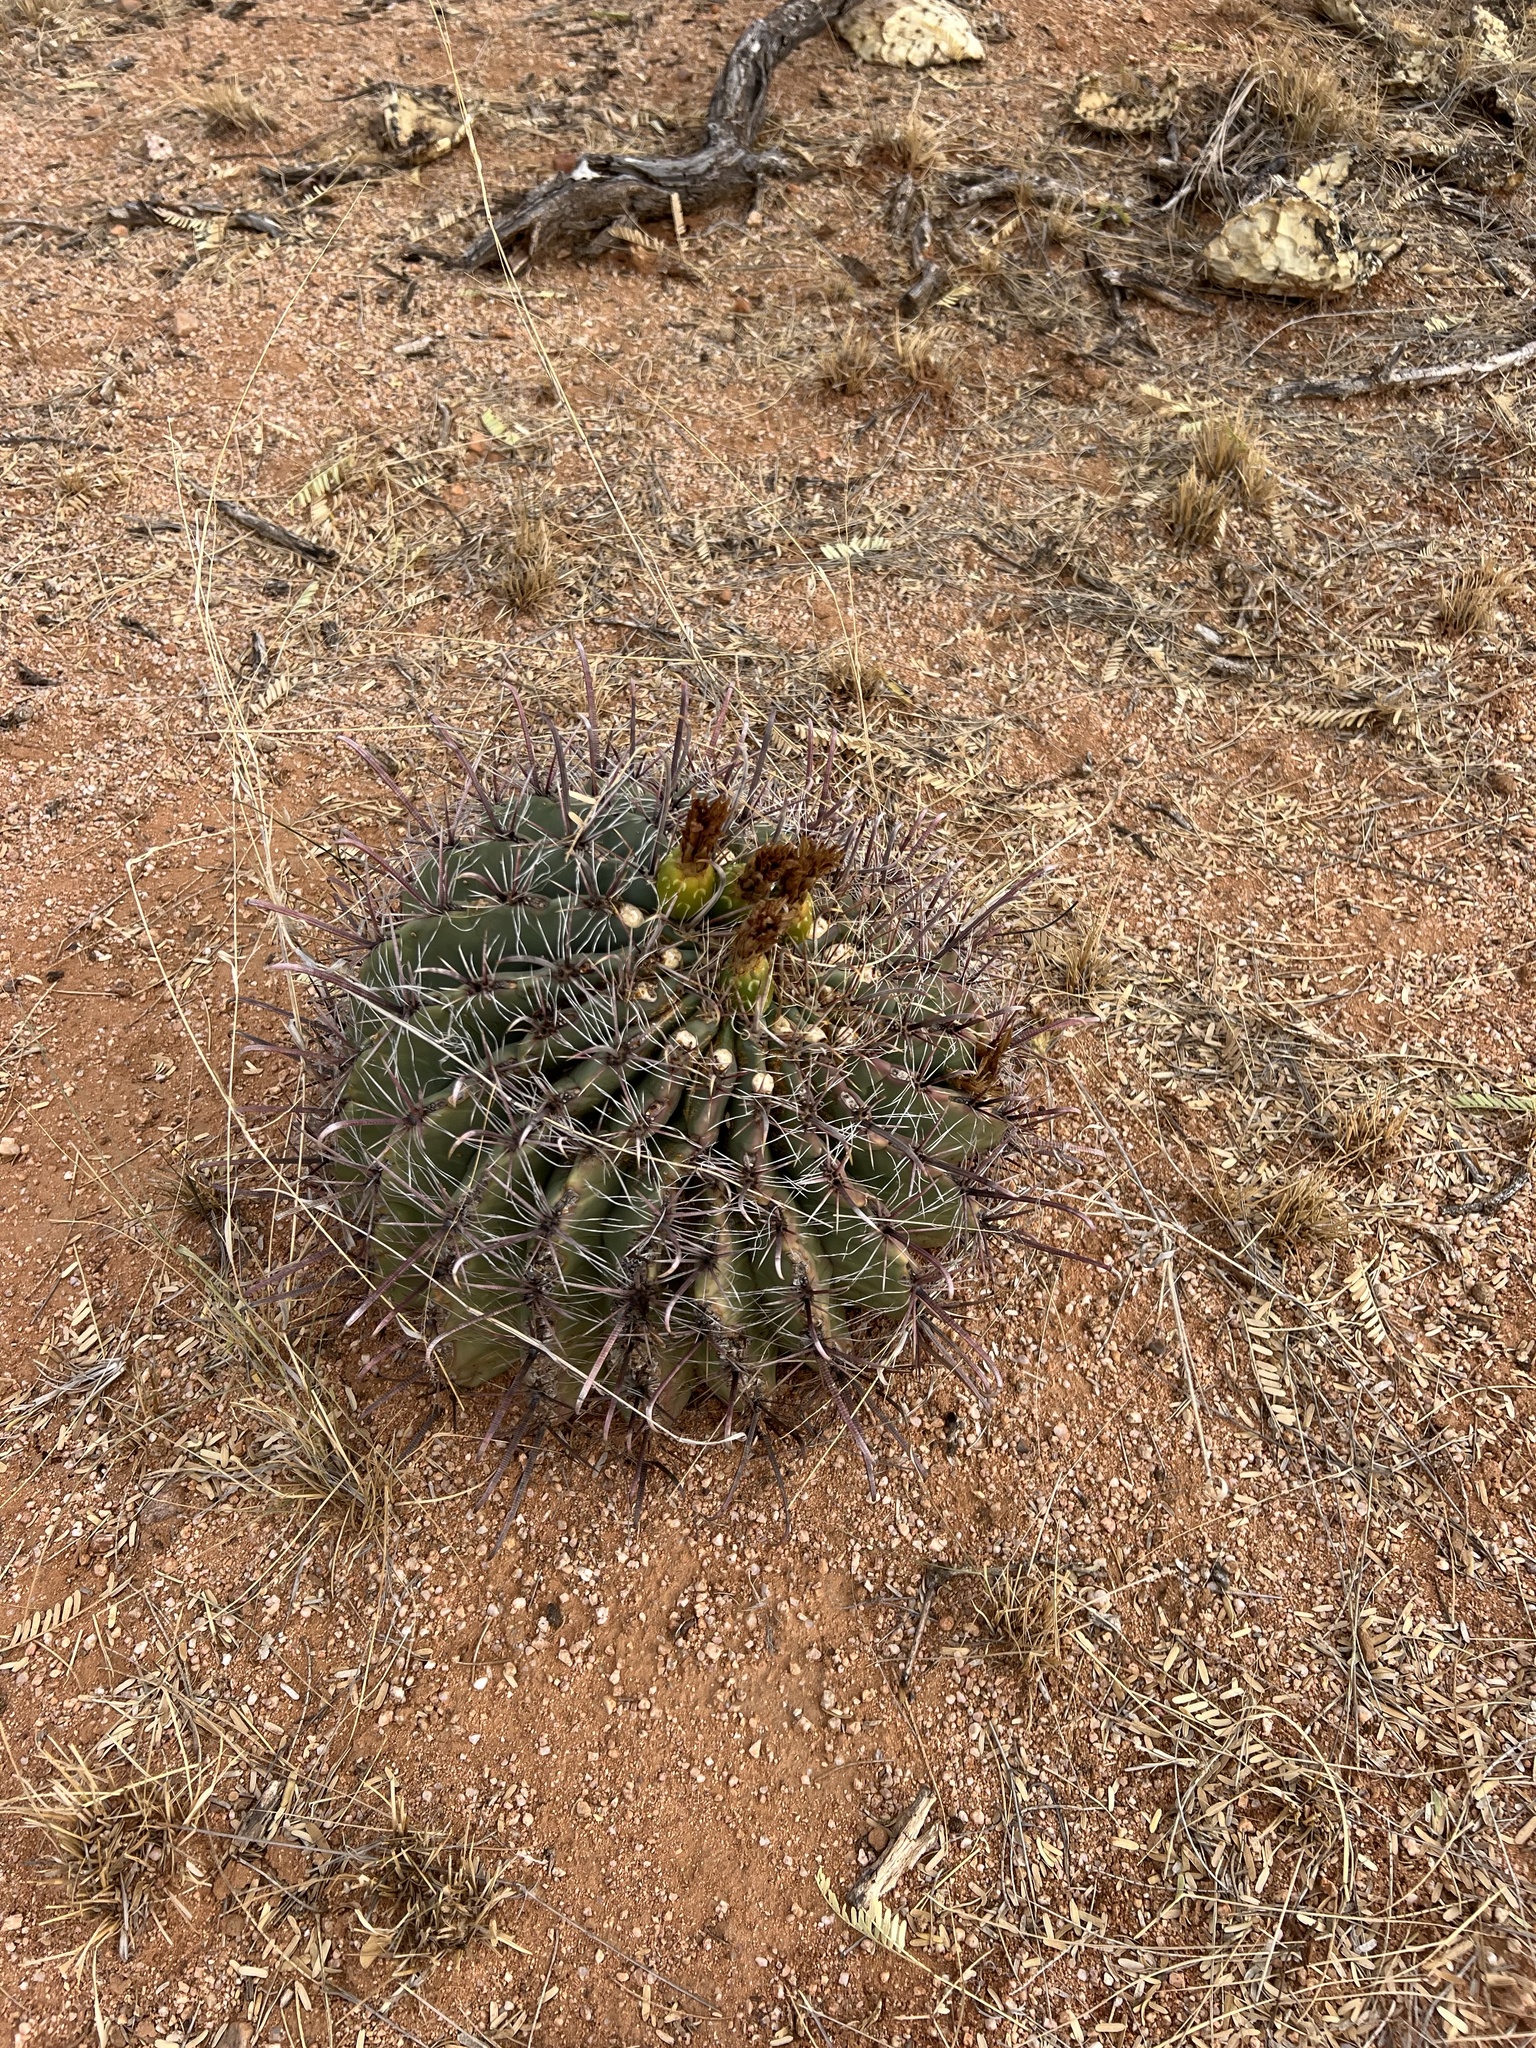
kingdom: Plantae
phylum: Tracheophyta
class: Magnoliopsida
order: Caryophyllales
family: Cactaceae
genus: Ferocactus
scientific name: Ferocactus wislizeni
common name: Candy barrel cactus
